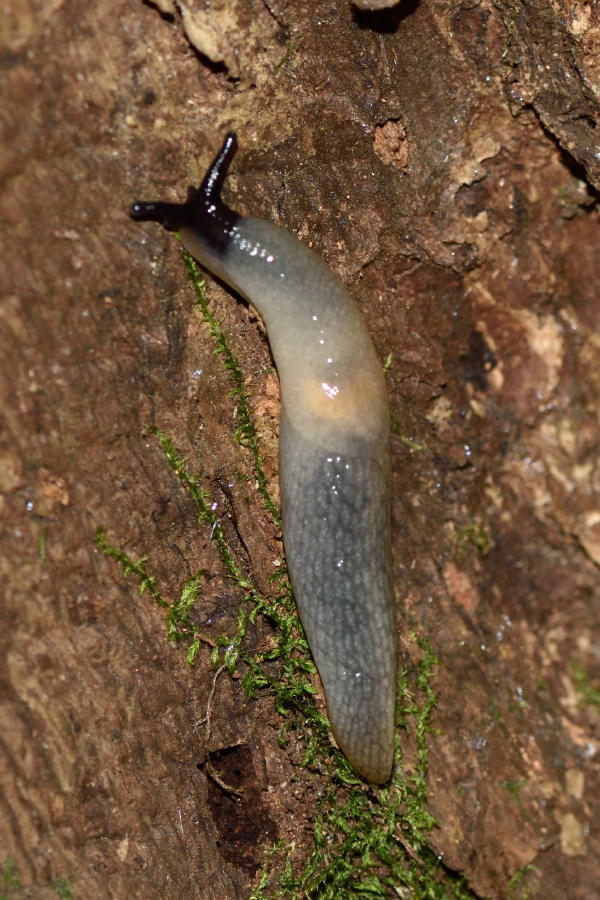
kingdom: Animalia
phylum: Mollusca
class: Gastropoda
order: Stylommatophora
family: Agriolimacidae
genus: Krynickillus
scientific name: Krynickillus melanocephalus
